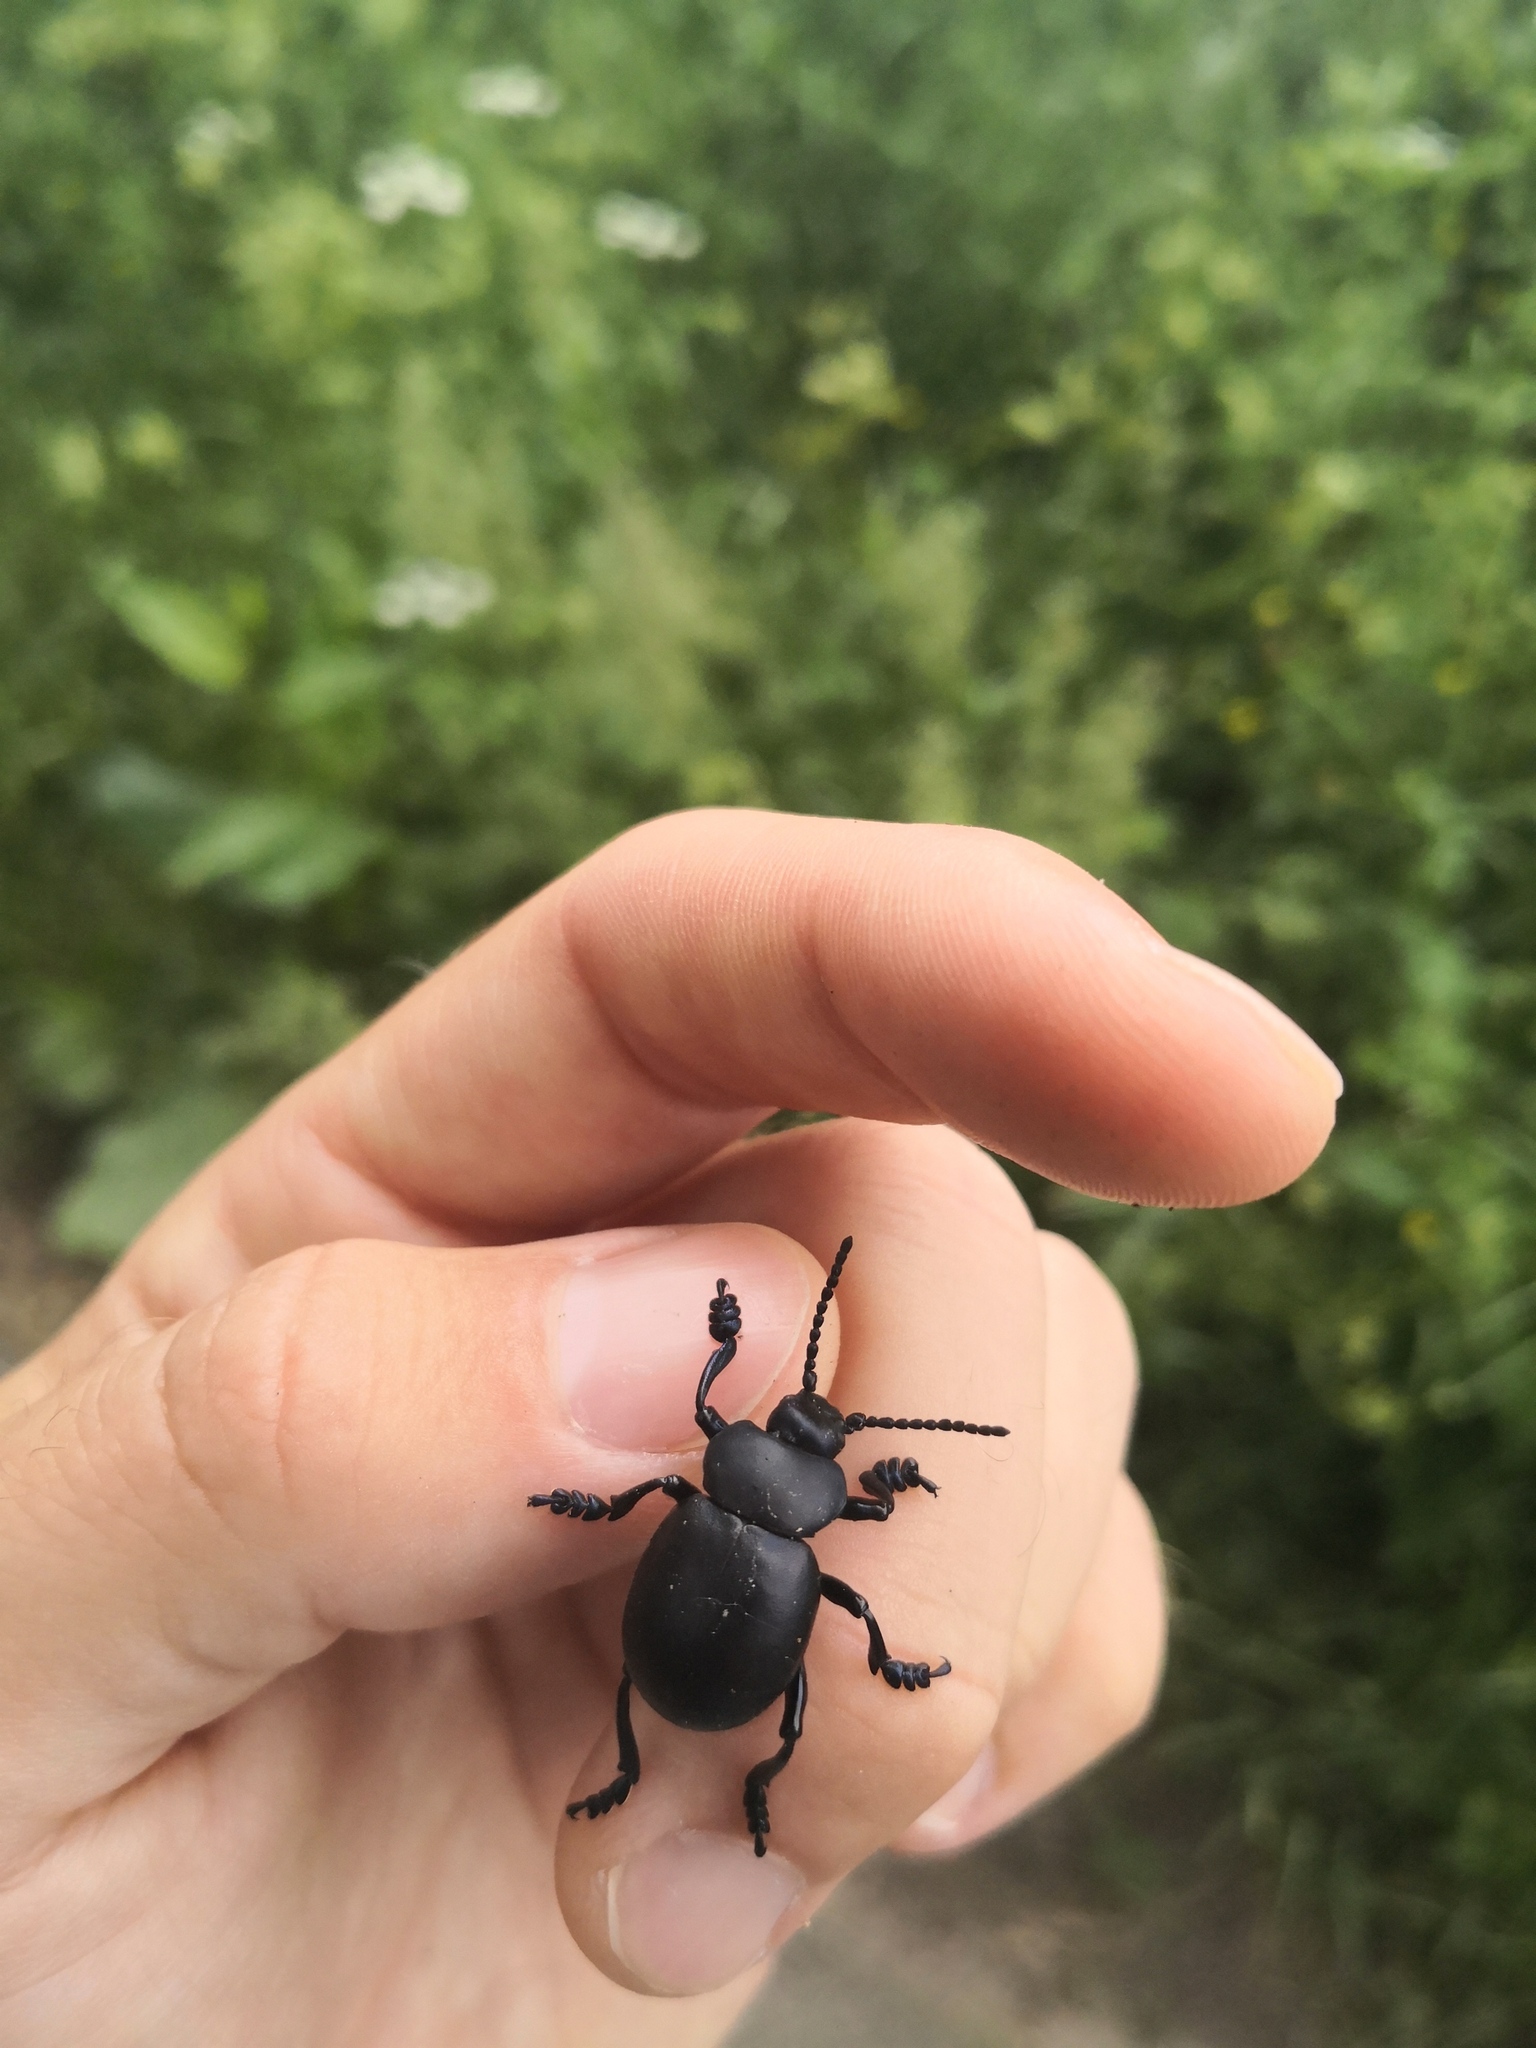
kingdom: Animalia
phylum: Arthropoda
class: Insecta
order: Coleoptera
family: Chrysomelidae
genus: Timarcha
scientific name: Timarcha tenebricosa
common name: Bloody-nosed beetle
